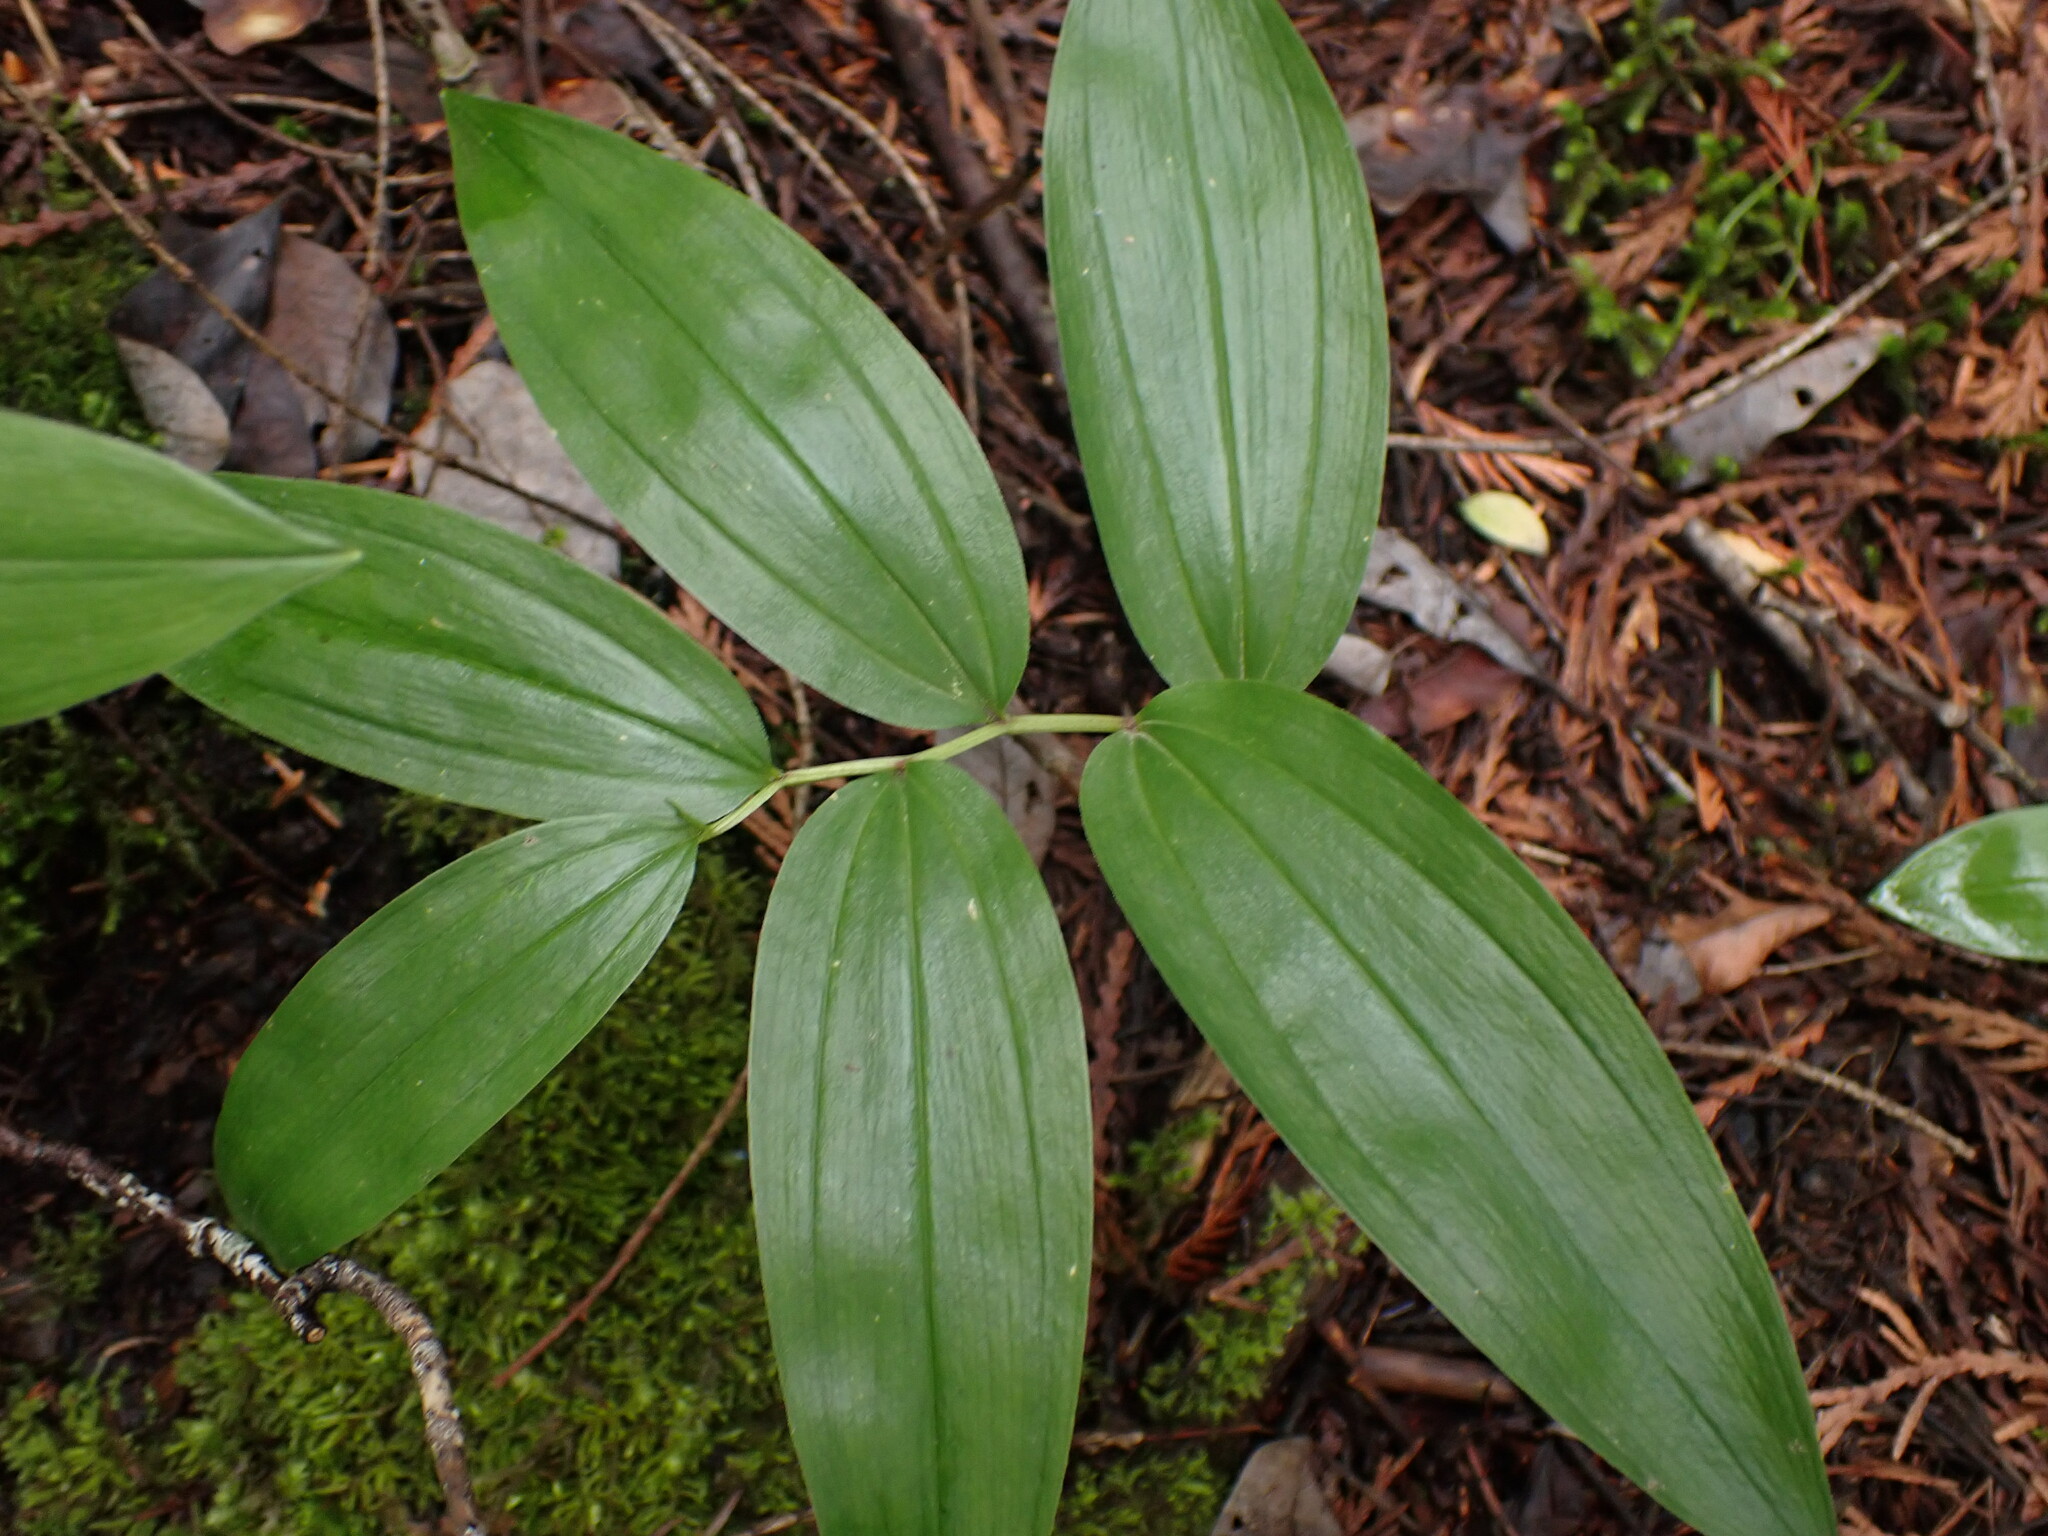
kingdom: Plantae
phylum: Tracheophyta
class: Liliopsida
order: Asparagales
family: Asparagaceae
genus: Maianthemum
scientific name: Maianthemum racemosum
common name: False spikenard
